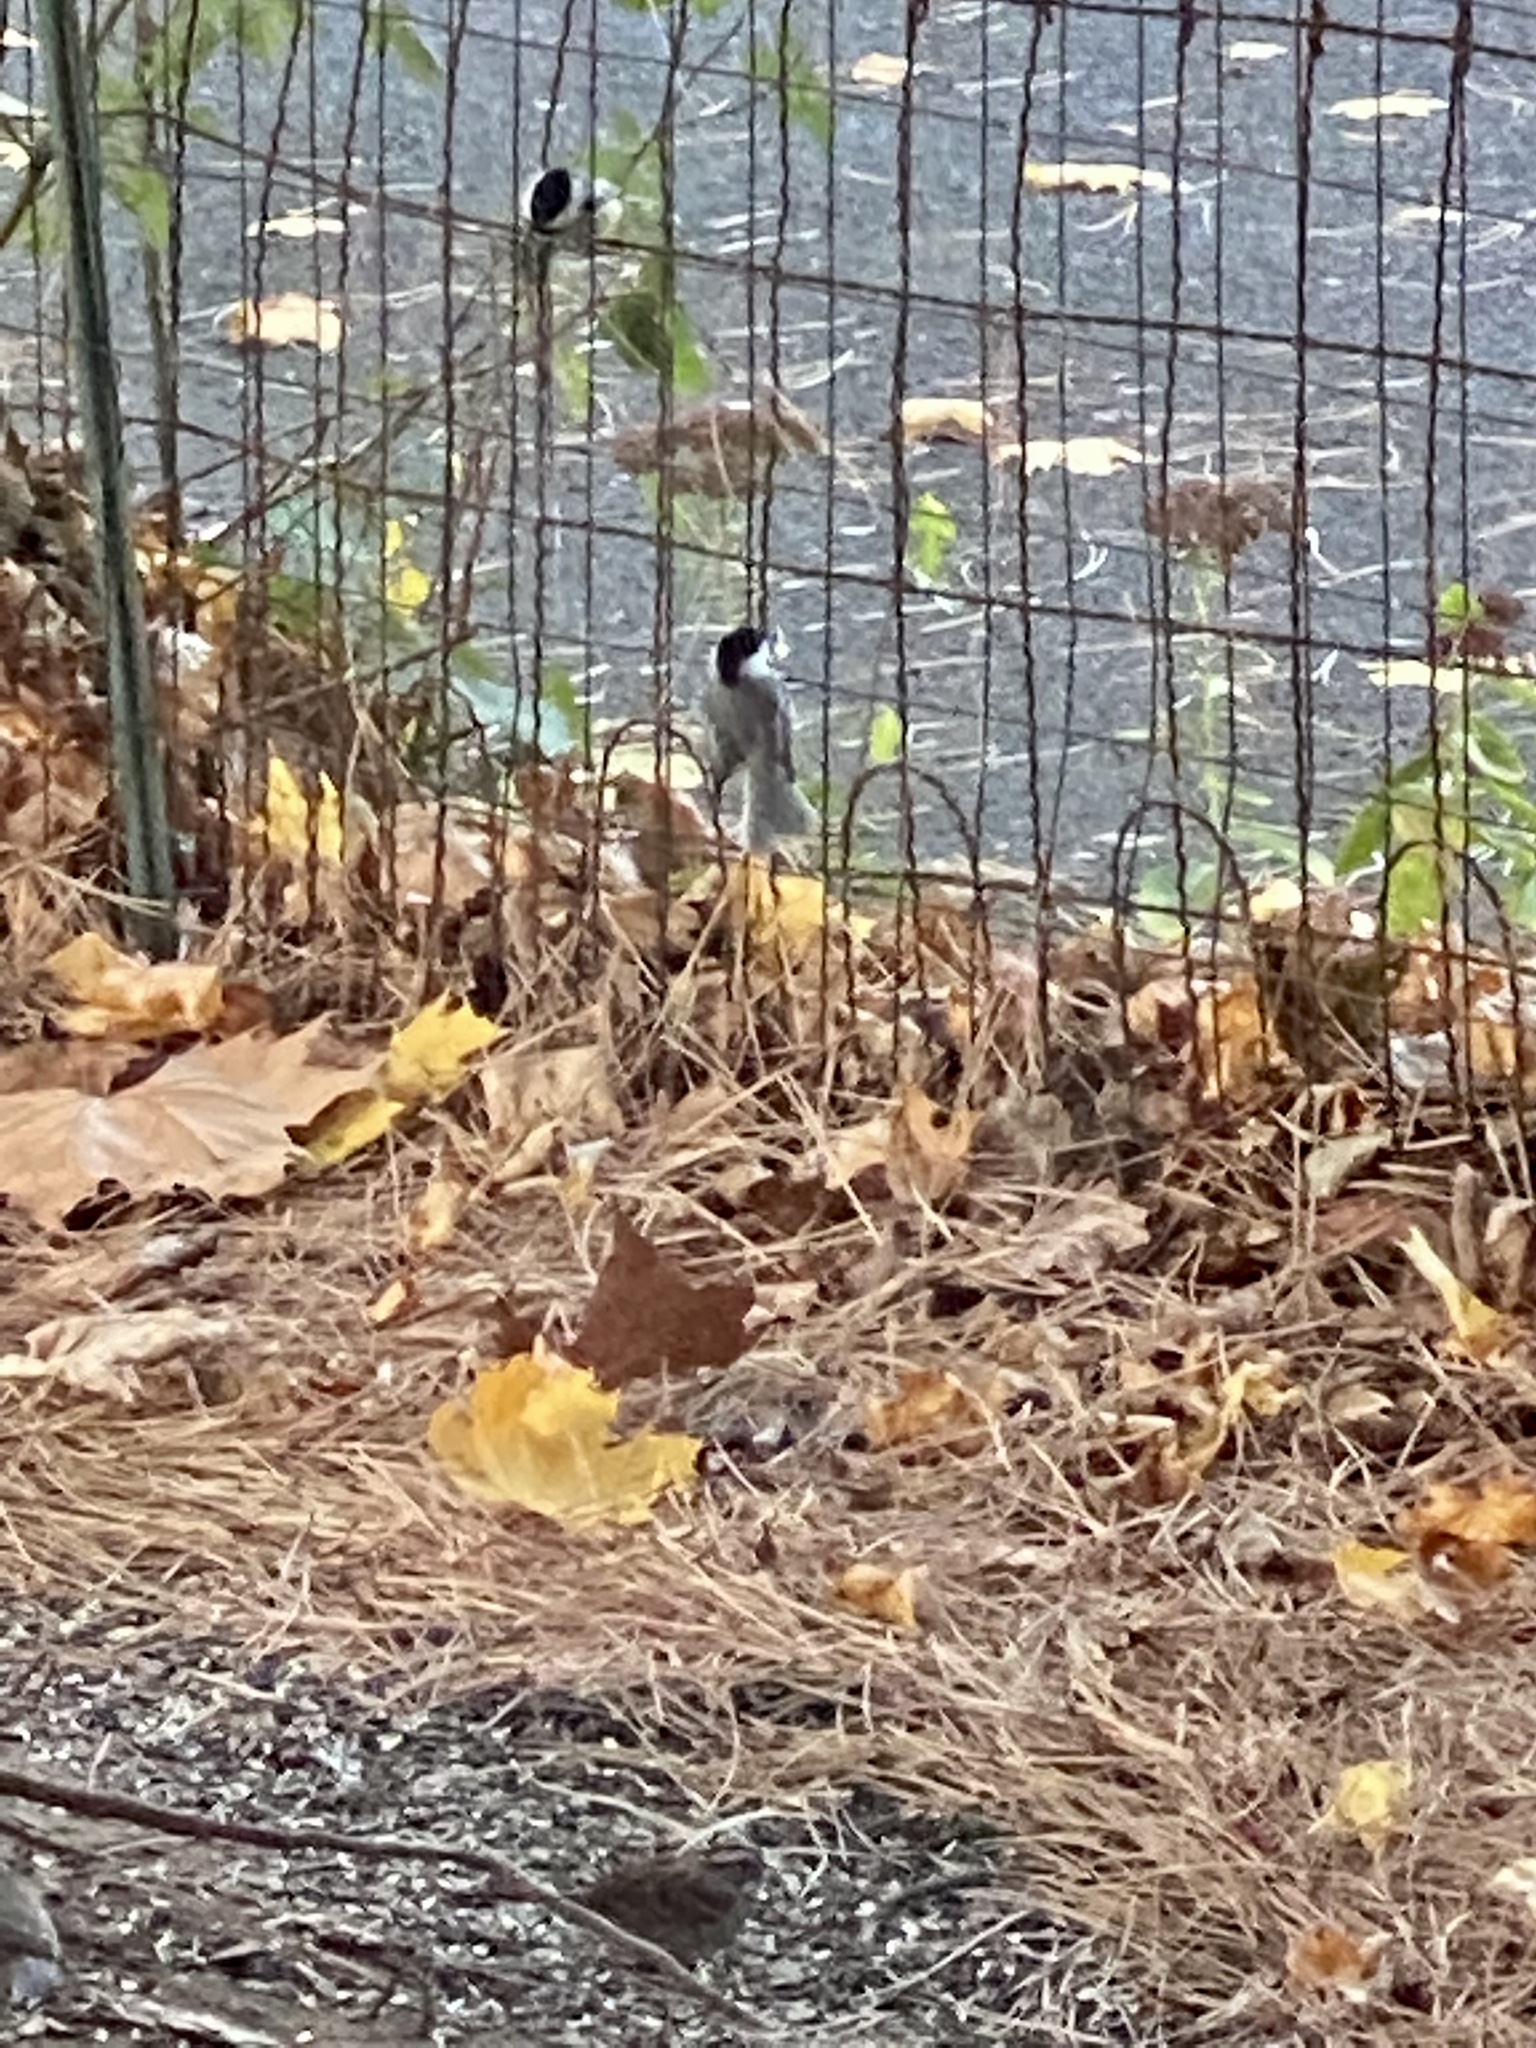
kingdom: Animalia
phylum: Chordata
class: Aves
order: Passeriformes
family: Paridae
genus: Poecile
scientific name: Poecile atricapillus
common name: Black-capped chickadee
